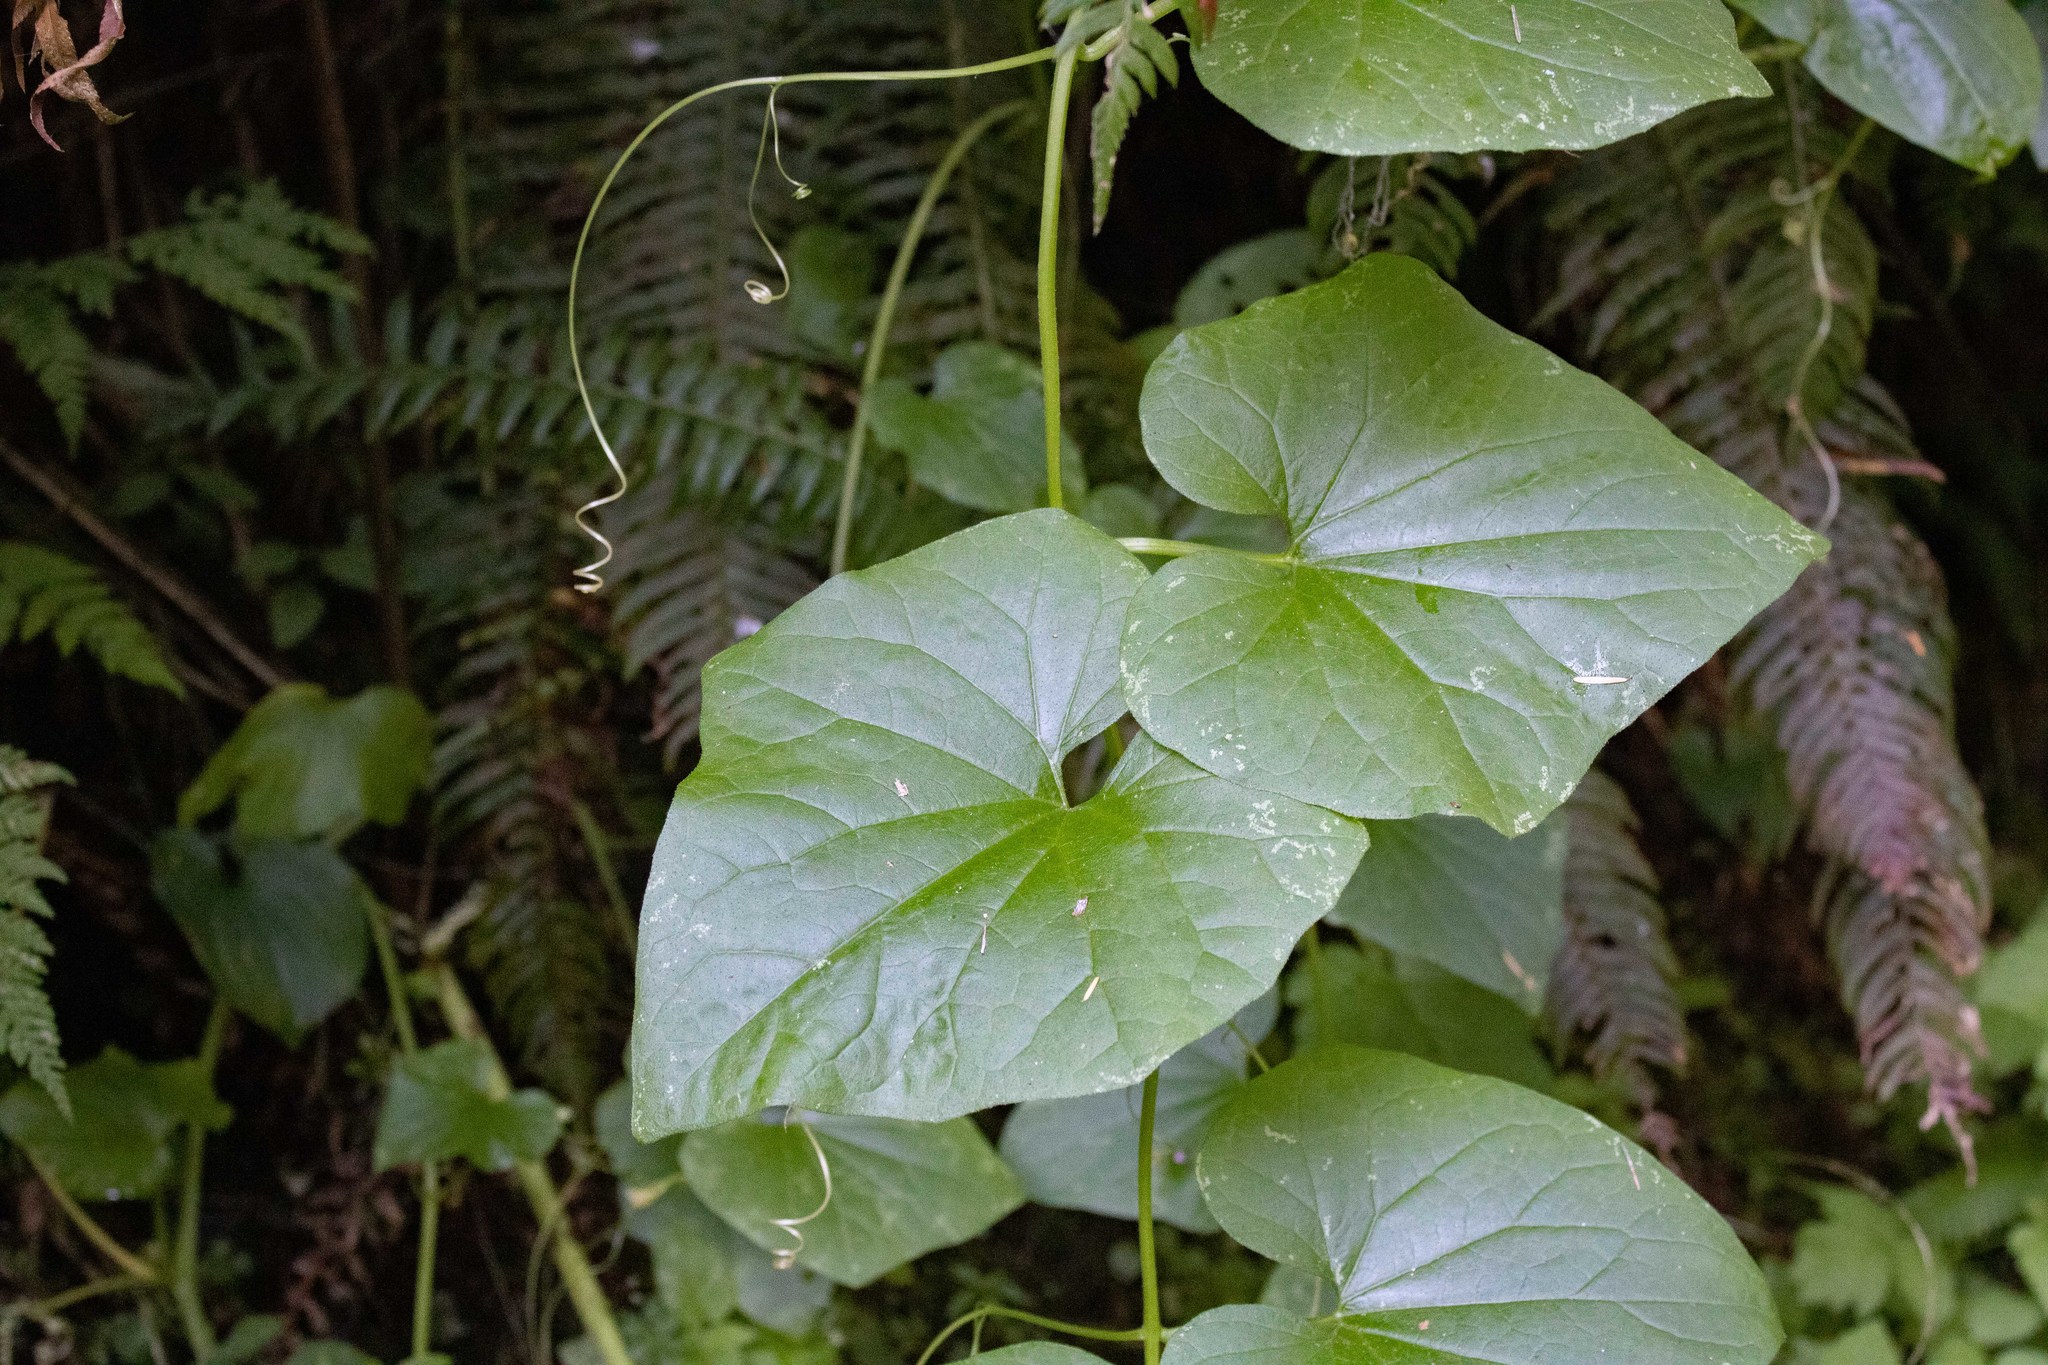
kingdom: Plantae
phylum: Tracheophyta
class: Magnoliopsida
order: Cucurbitales
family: Cucurbitaceae
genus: Marah
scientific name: Marah oregana
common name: Coastal manroot
